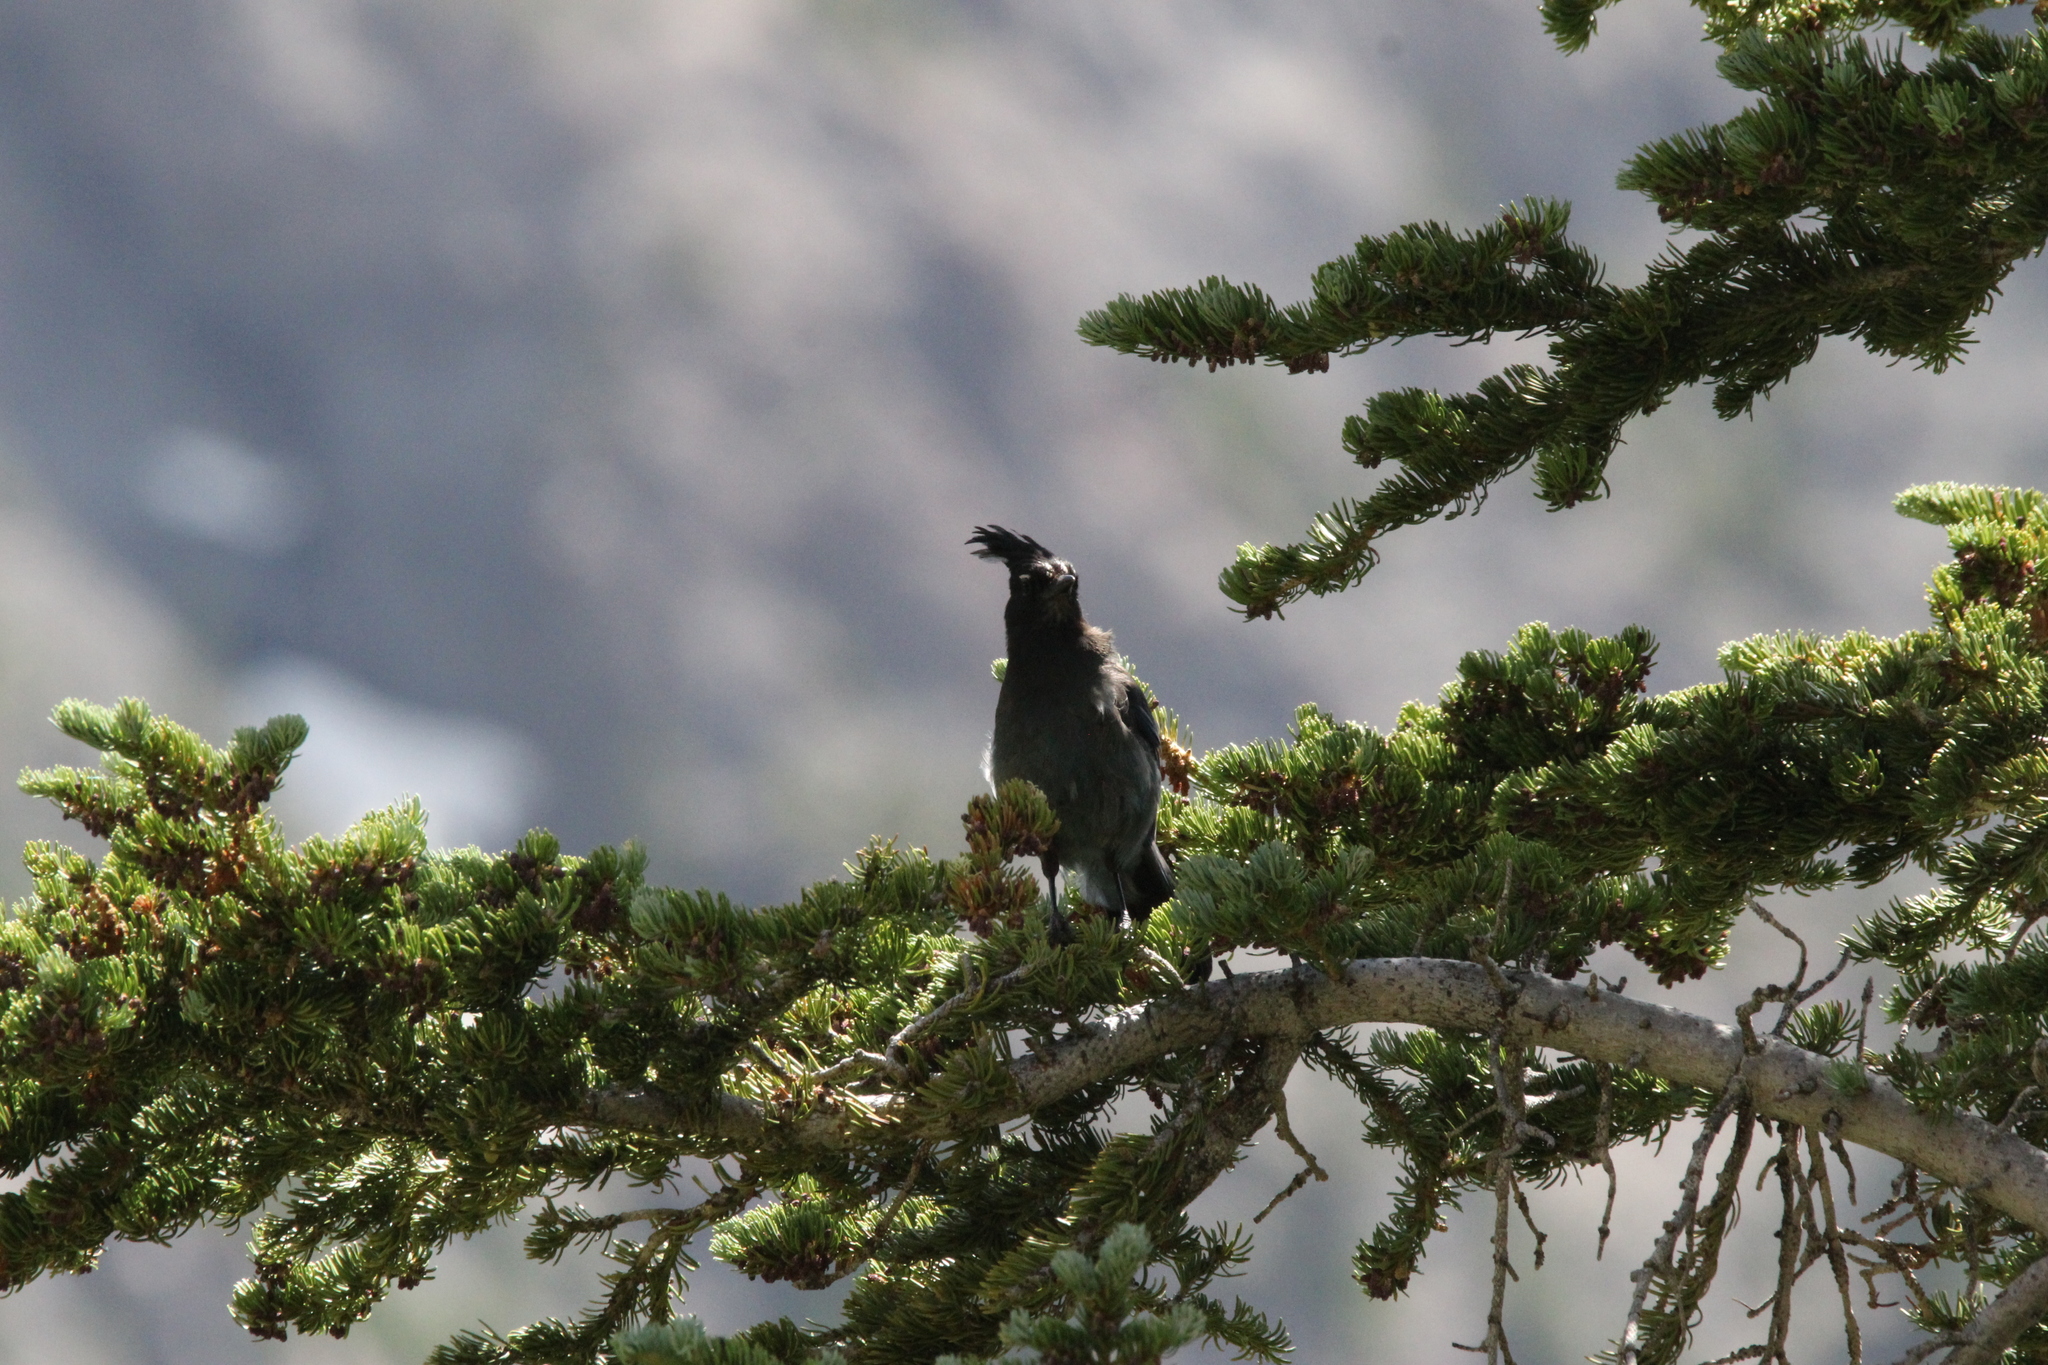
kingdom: Animalia
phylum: Chordata
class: Aves
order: Passeriformes
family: Corvidae
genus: Cyanocitta
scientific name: Cyanocitta stelleri
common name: Steller's jay
